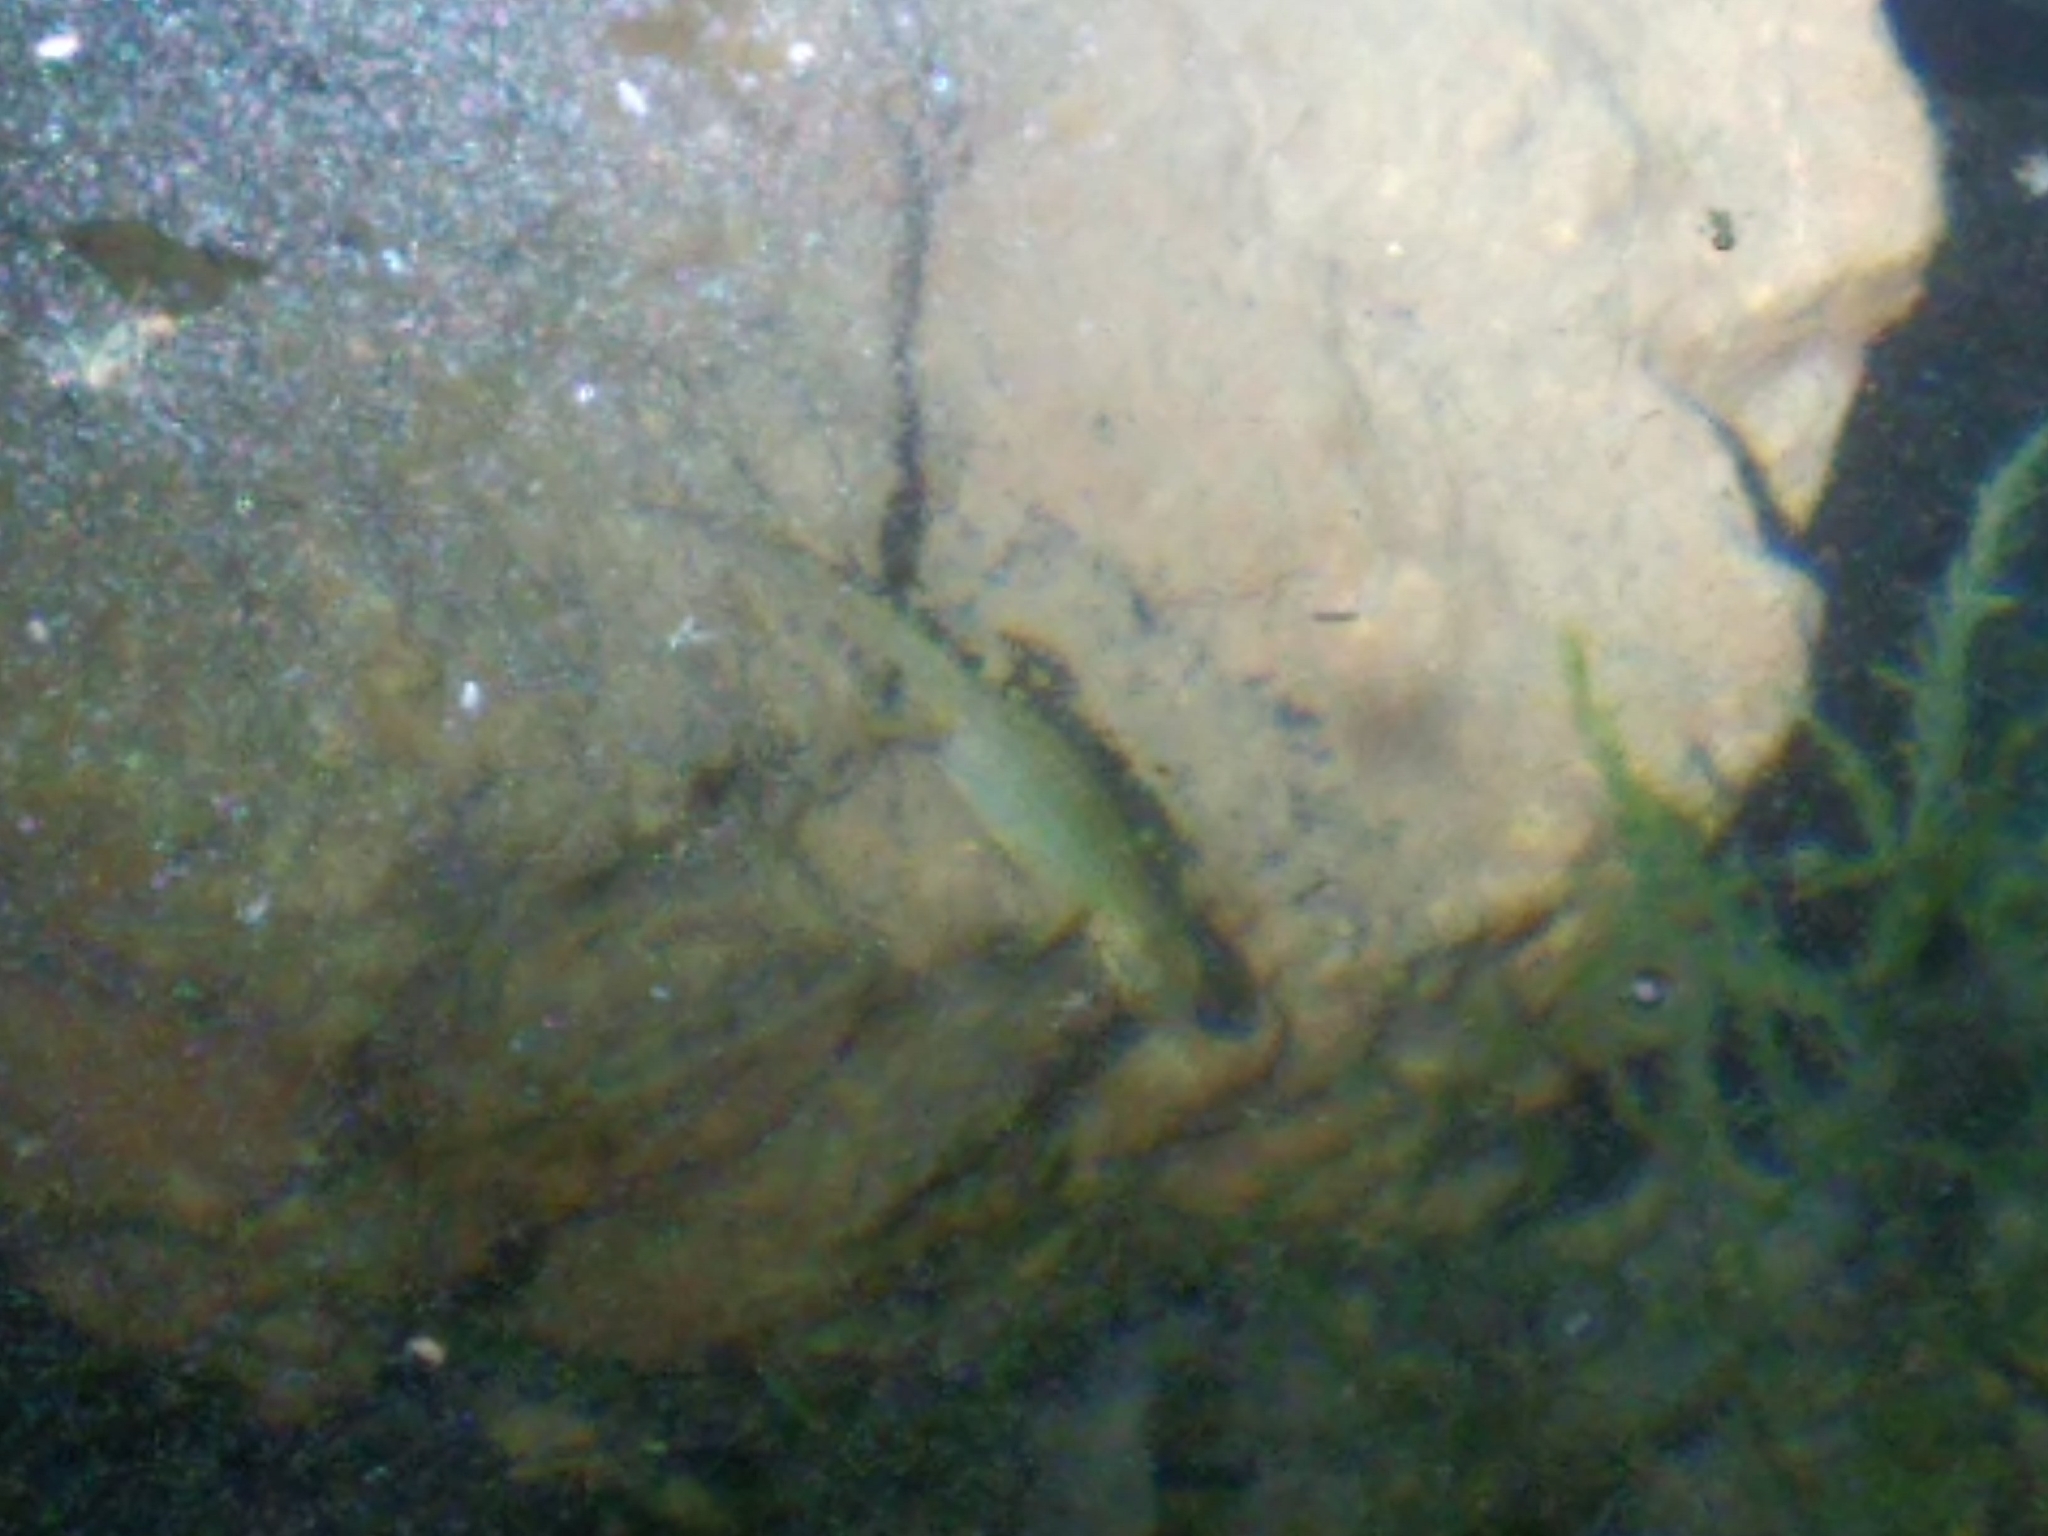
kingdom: Animalia
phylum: Chordata
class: Amphibia
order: Caudata
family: Salamandridae
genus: Lissotriton
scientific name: Lissotriton helveticus
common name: Palmate newt
